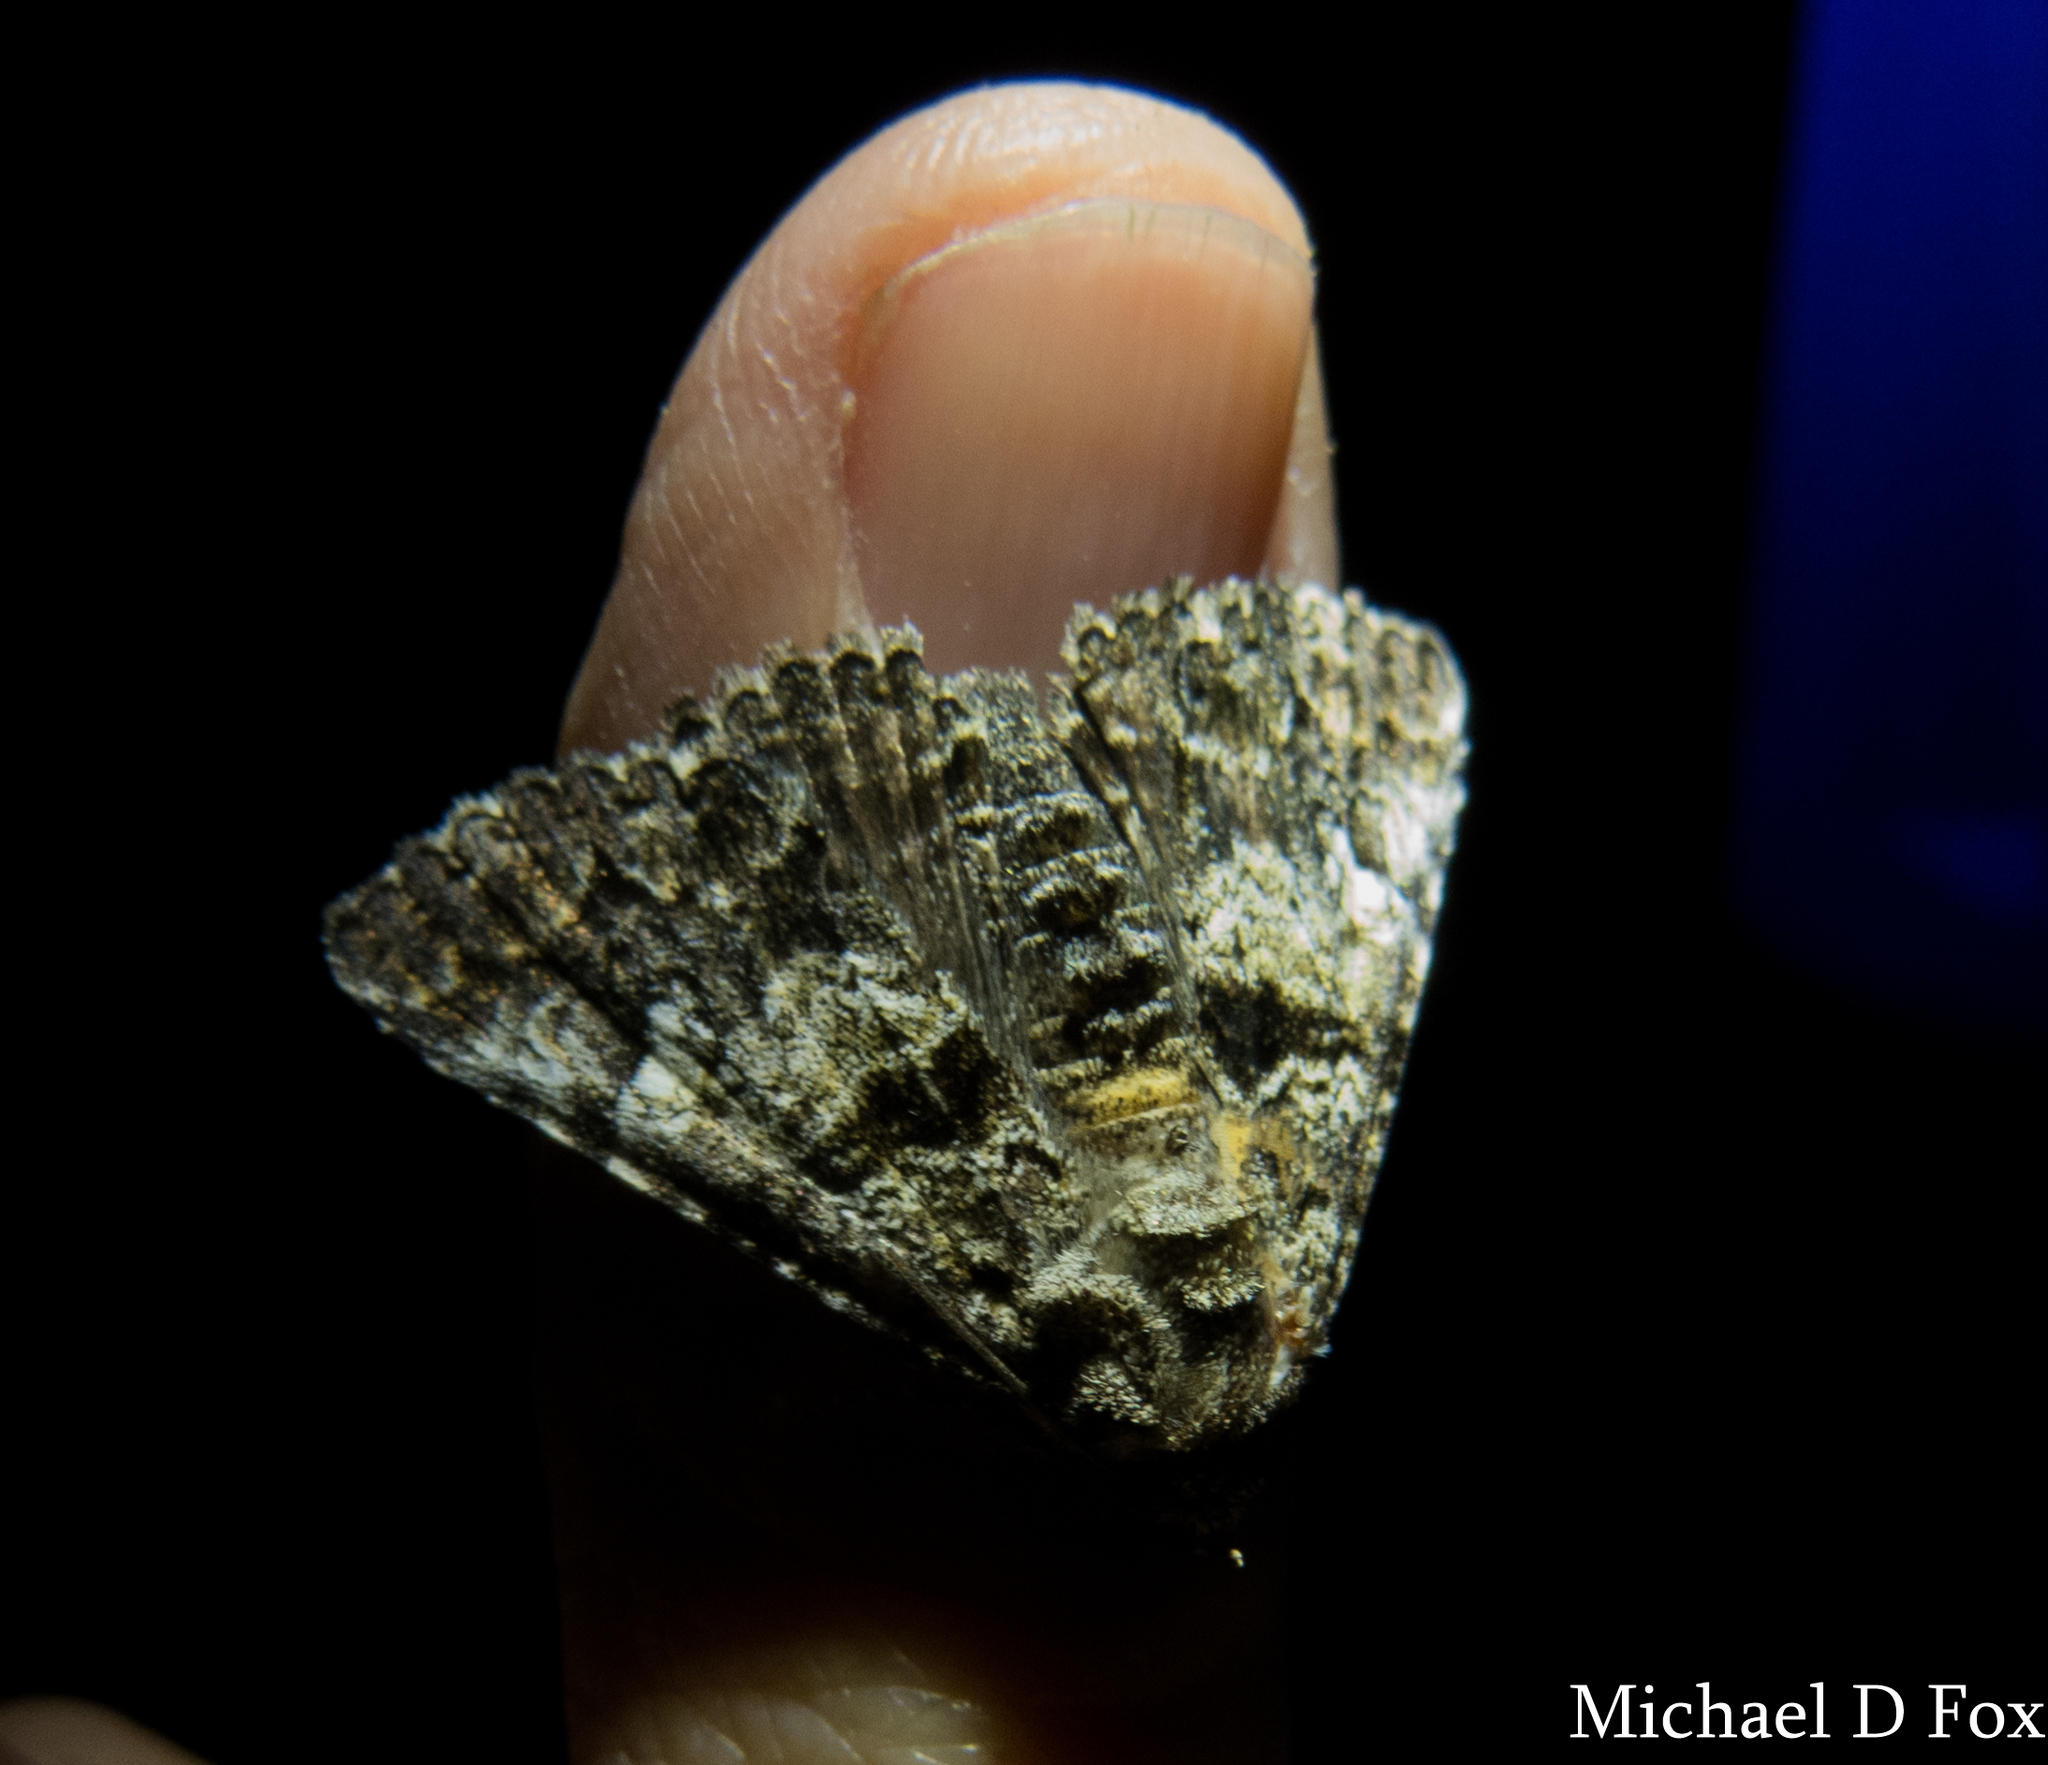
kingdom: Animalia
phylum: Arthropoda
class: Insecta
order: Lepidoptera
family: Erebidae
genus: Metria
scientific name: Metria amella
